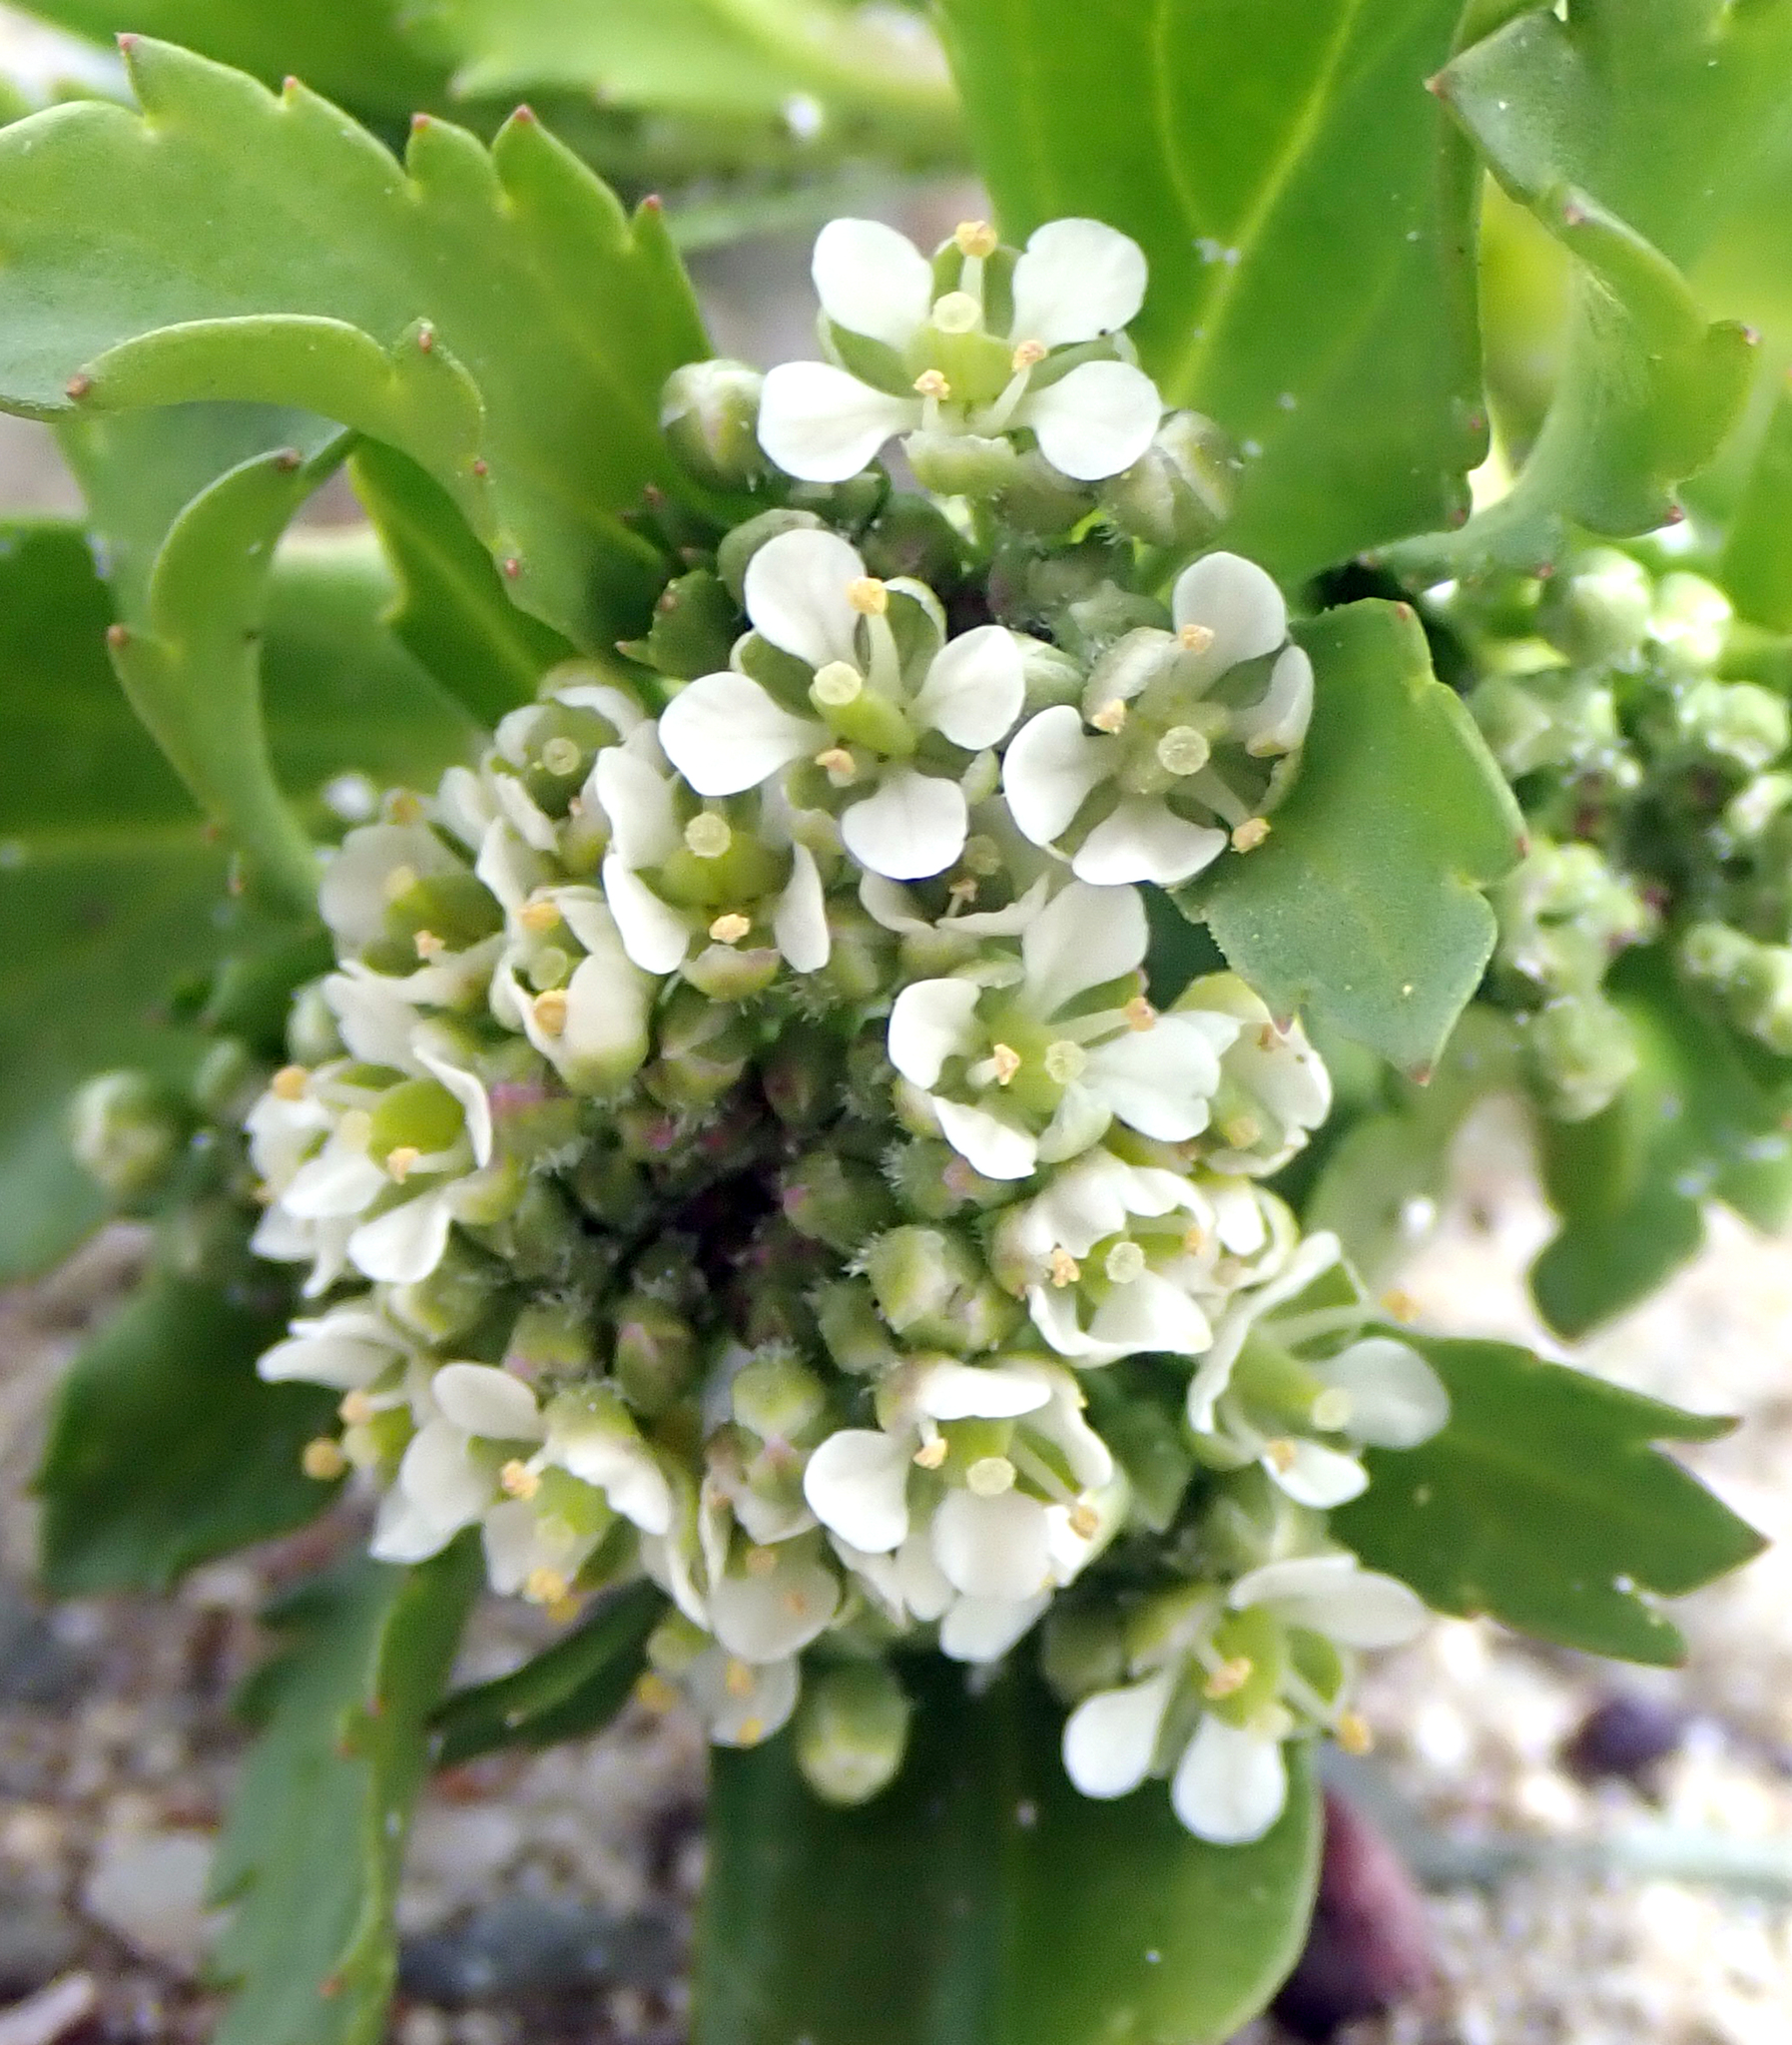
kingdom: Plantae
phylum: Tracheophyta
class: Magnoliopsida
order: Brassicales
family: Brassicaceae
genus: Lepidium
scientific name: Lepidium rekohuense
